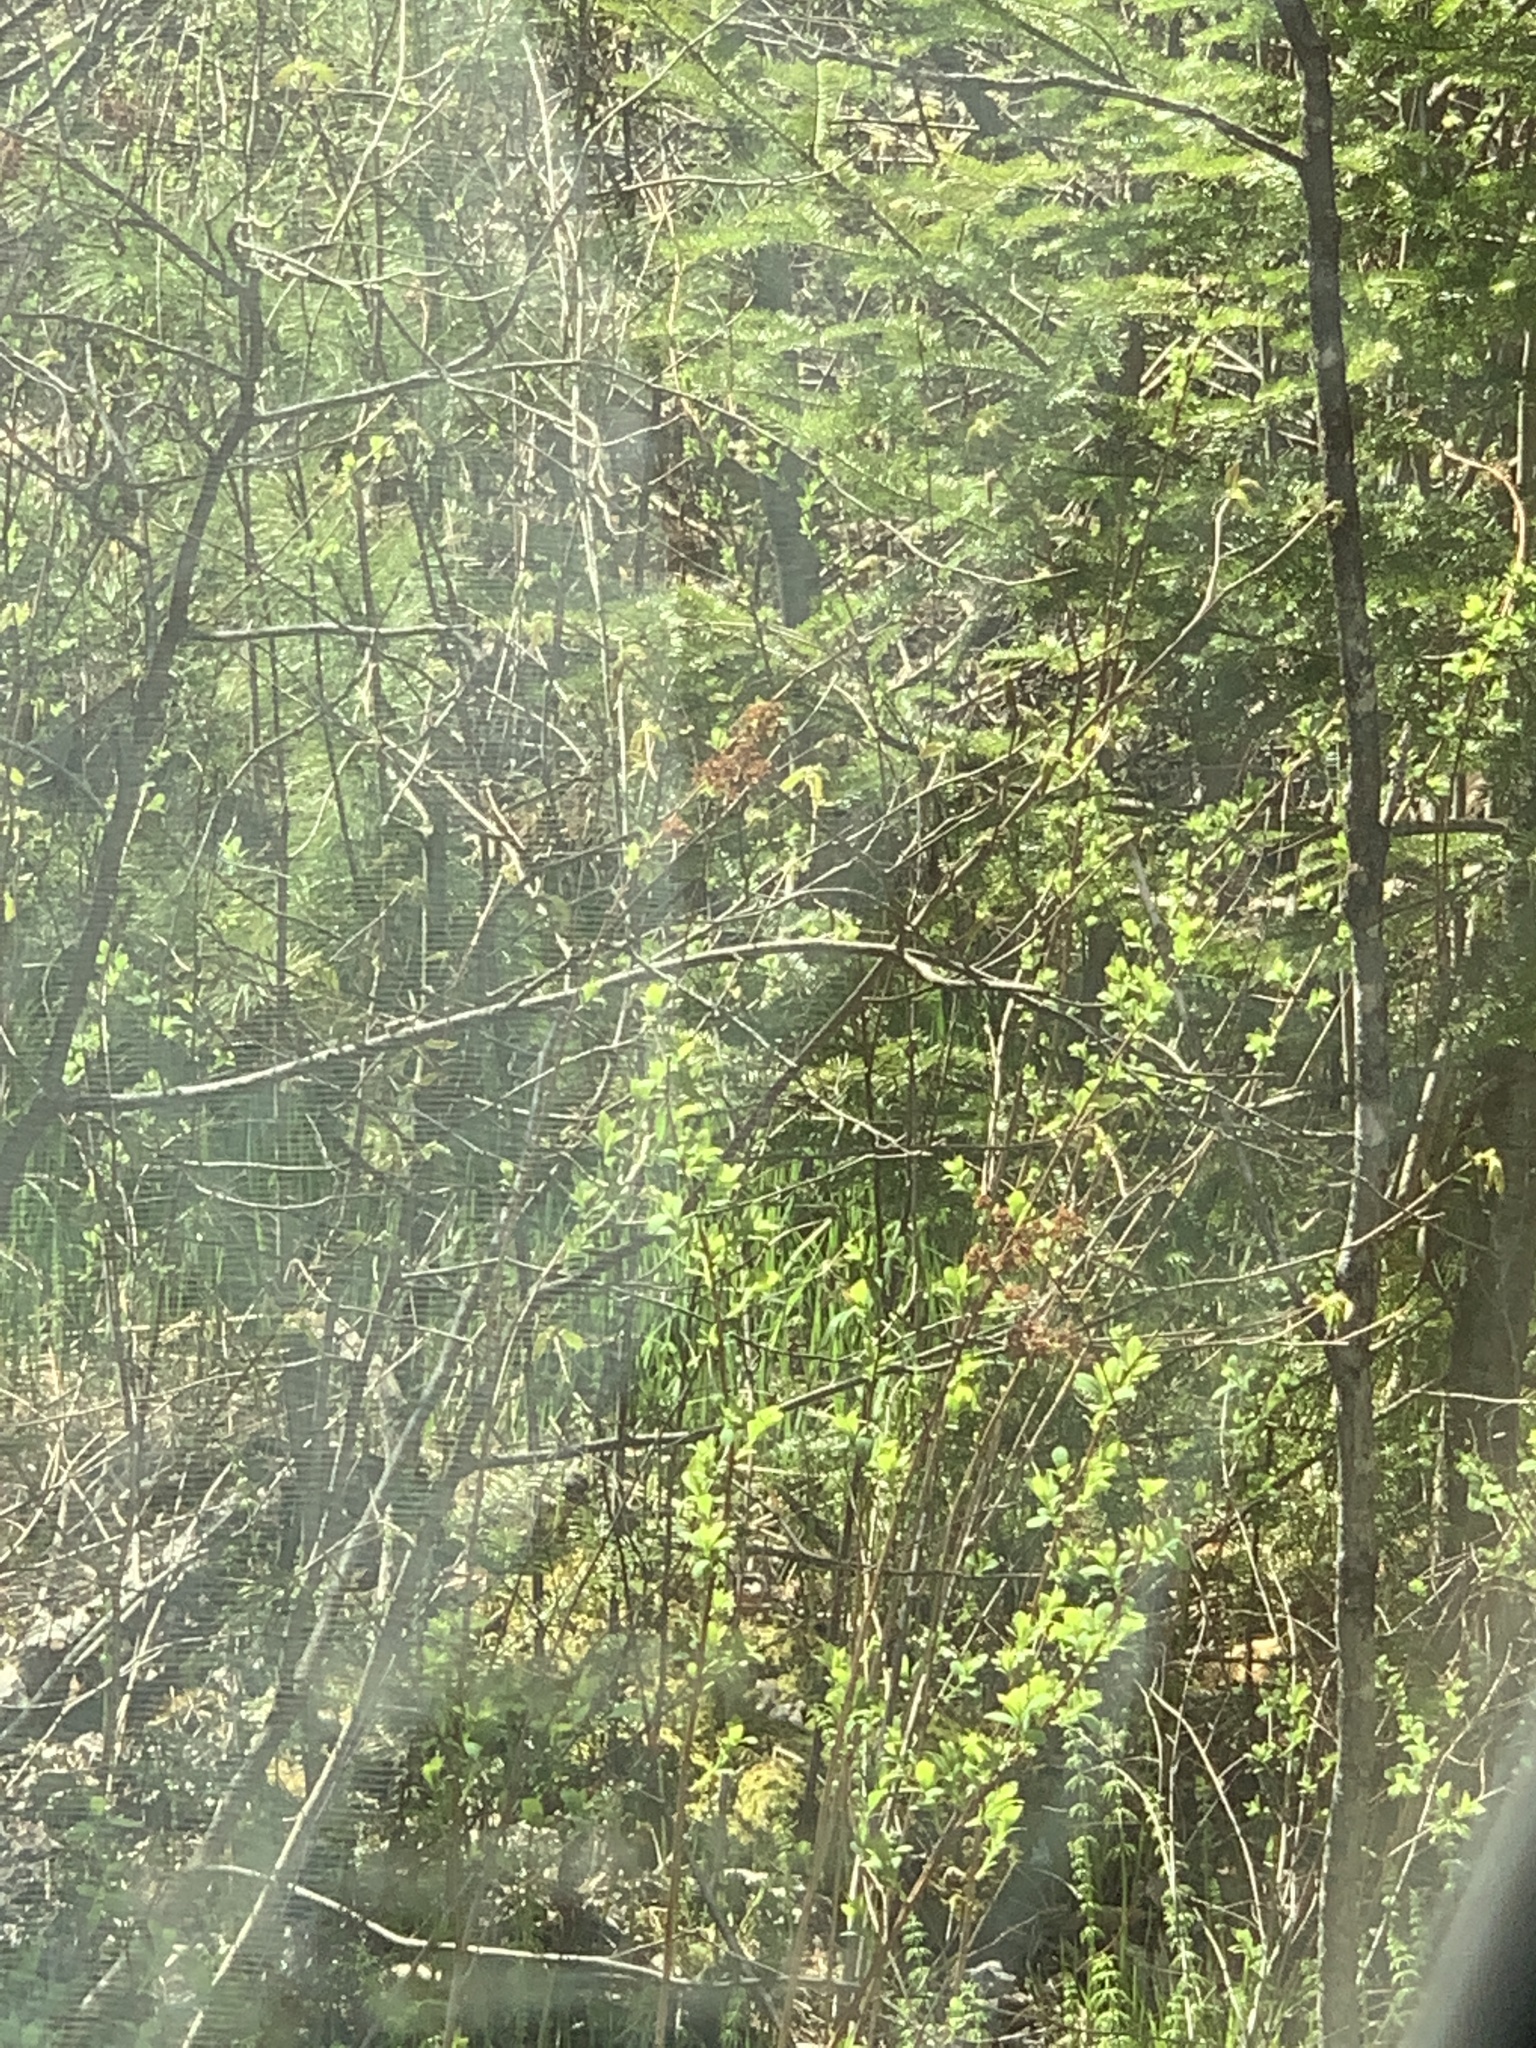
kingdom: Plantae
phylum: Tracheophyta
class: Magnoliopsida
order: Rosales
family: Rosaceae
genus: Spiraea
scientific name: Spiraea alba
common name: Pale bridewort
